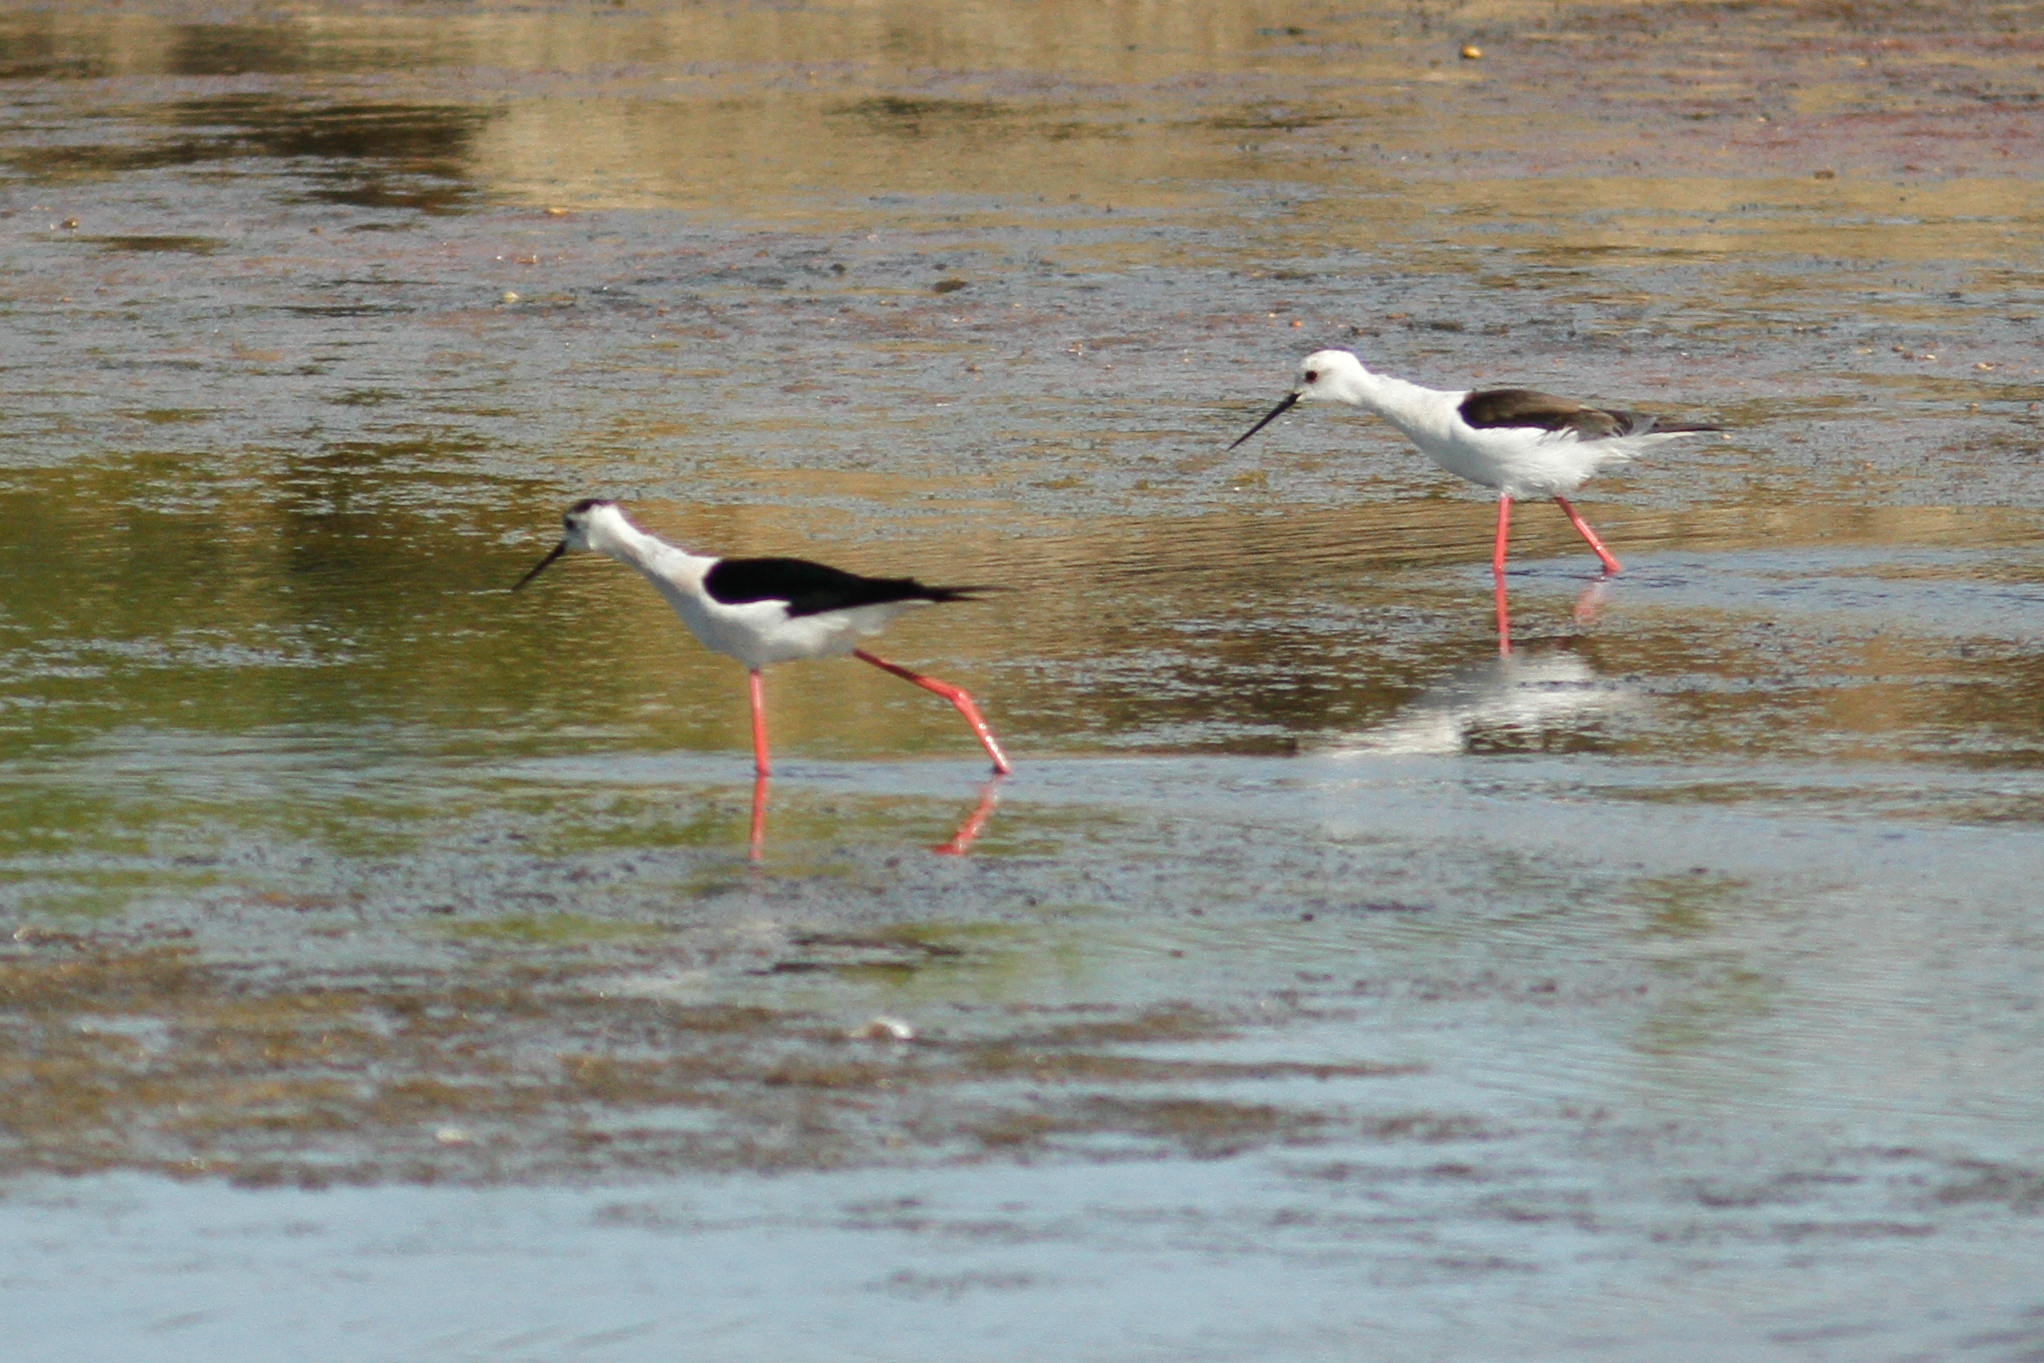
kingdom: Animalia
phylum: Chordata
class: Aves
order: Charadriiformes
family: Recurvirostridae
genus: Himantopus
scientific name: Himantopus himantopus
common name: Black-winged stilt
